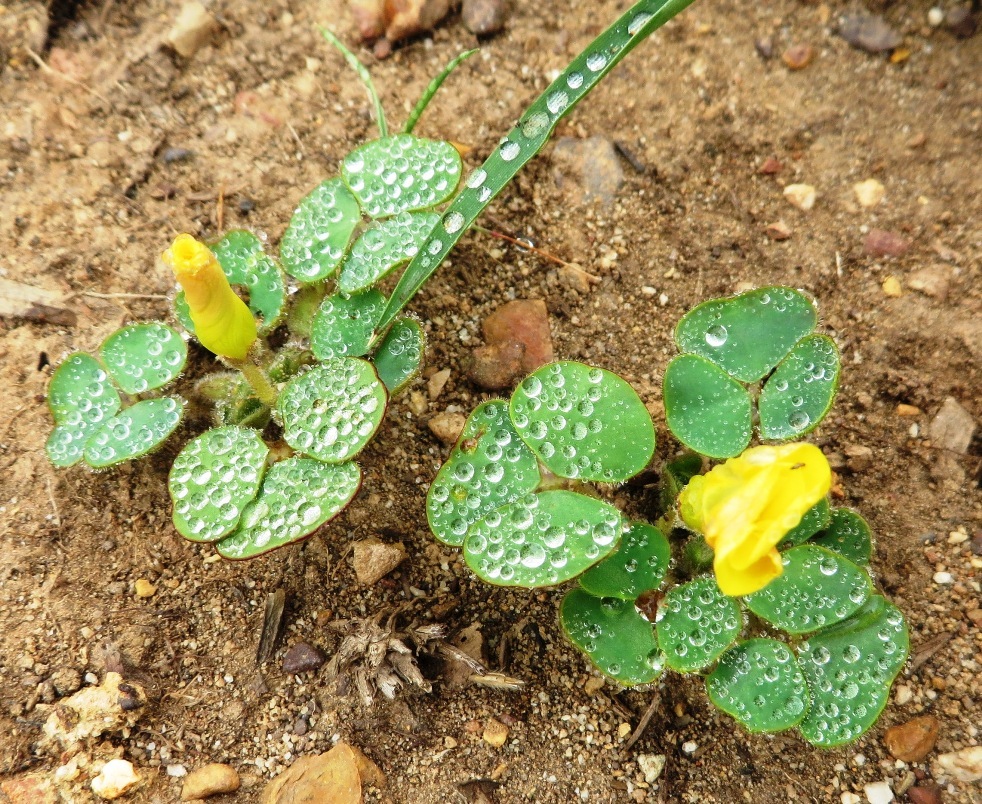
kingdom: Plantae
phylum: Tracheophyta
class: Magnoliopsida
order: Oxalidales
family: Oxalidaceae
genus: Oxalis
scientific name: Oxalis luteola
